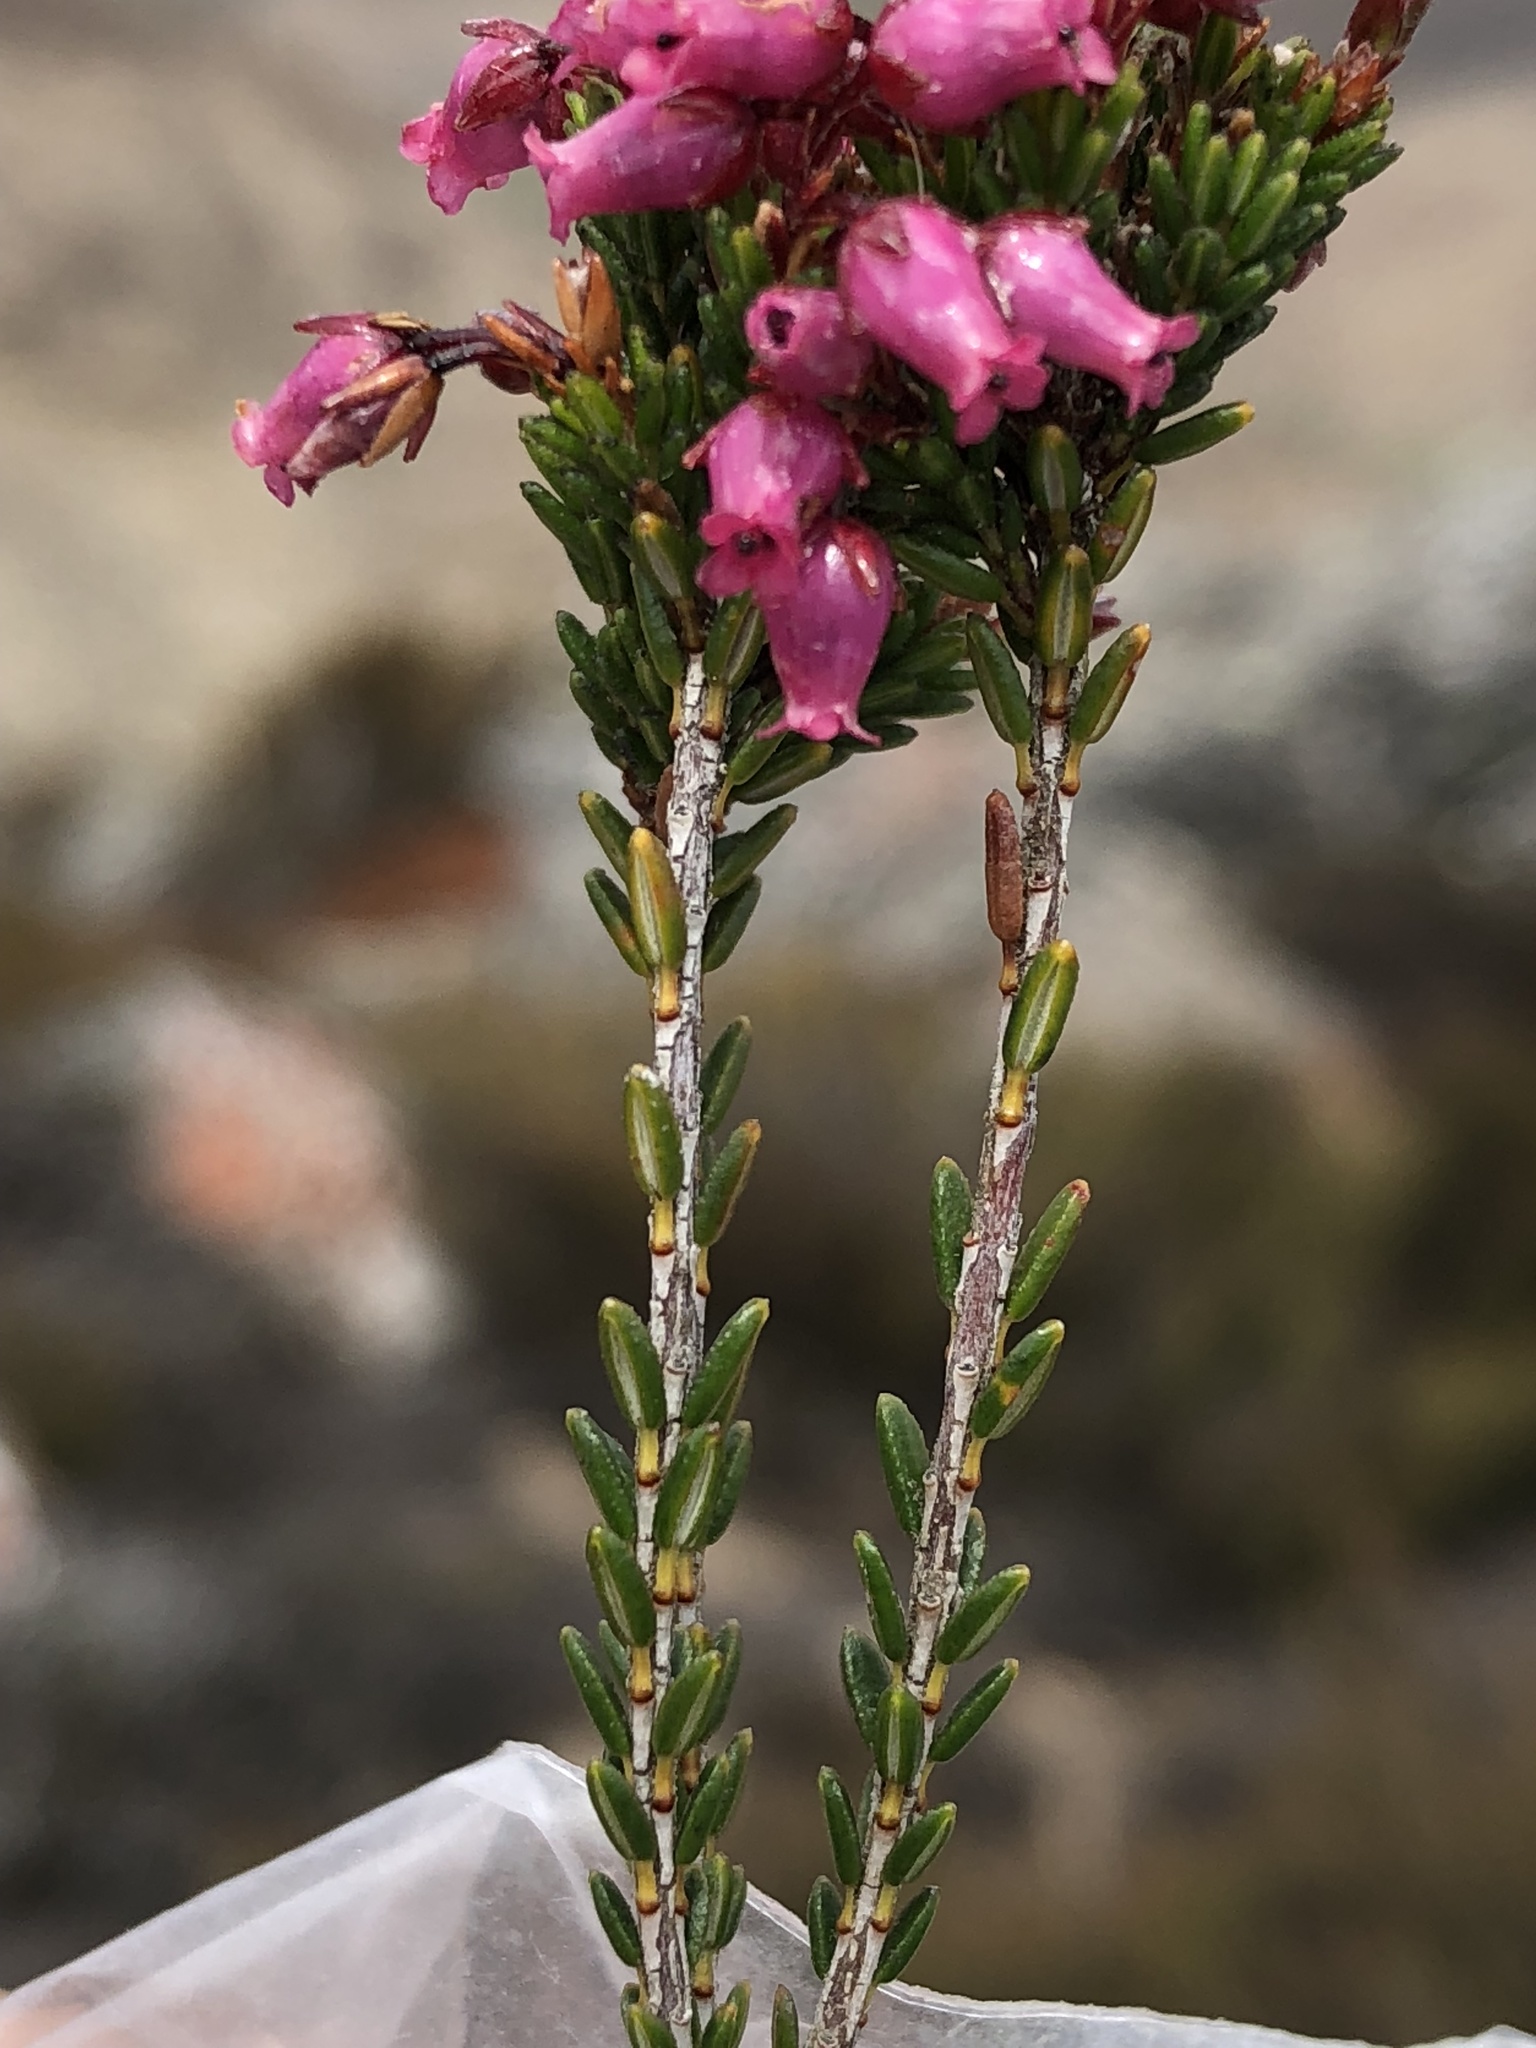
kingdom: Plantae
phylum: Tracheophyta
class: Magnoliopsida
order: Ericales
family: Ericaceae
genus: Erica
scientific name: Erica nubigena
